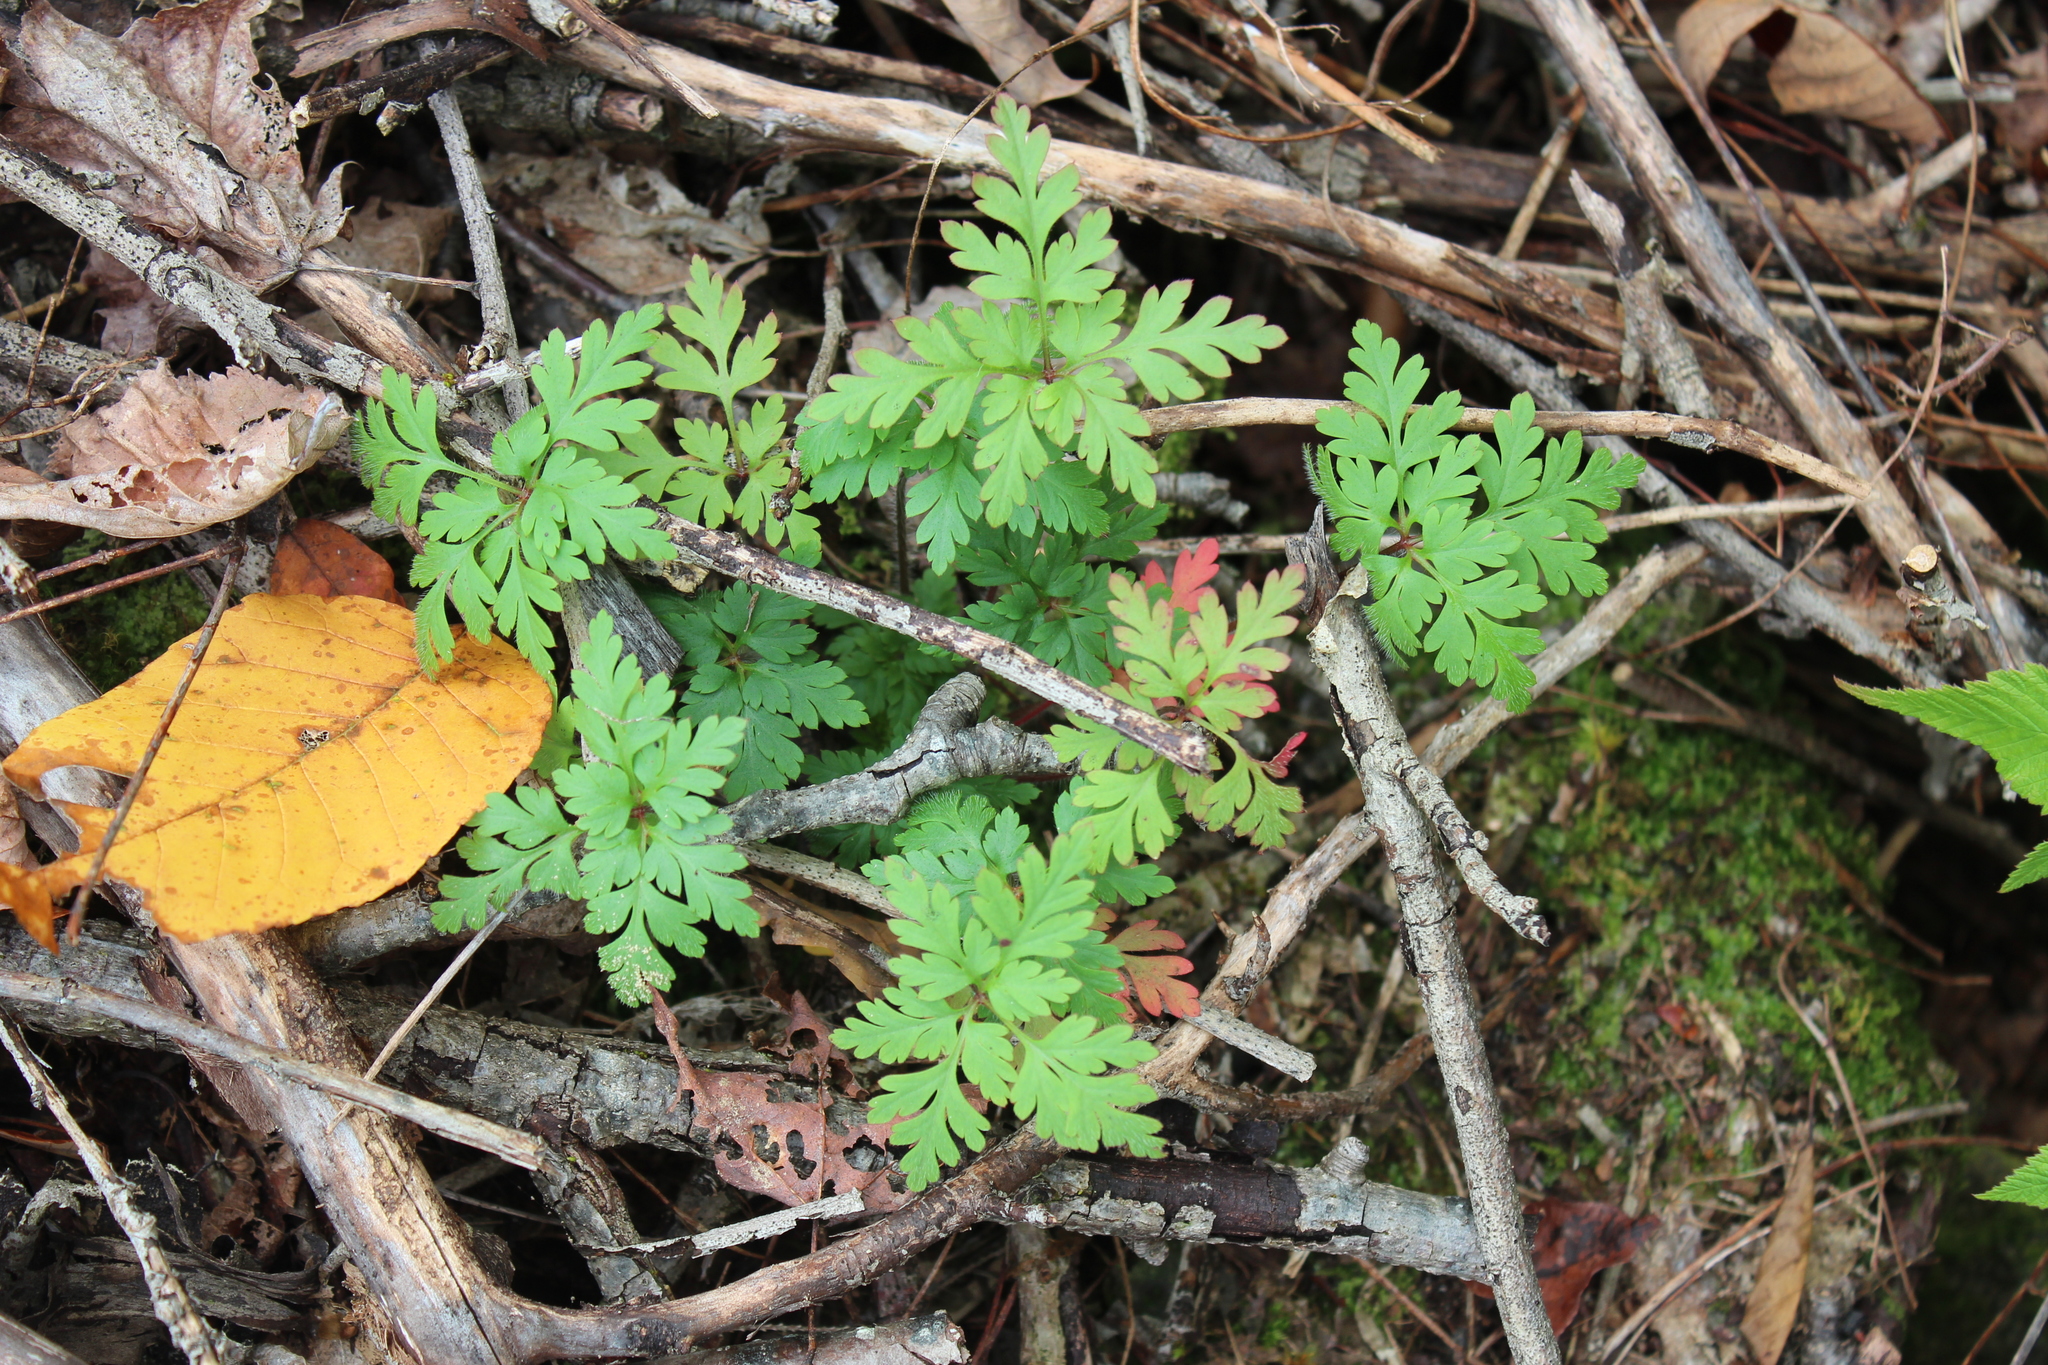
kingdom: Plantae
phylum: Tracheophyta
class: Magnoliopsida
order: Geraniales
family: Geraniaceae
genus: Geranium
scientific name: Geranium robertianum
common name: Herb-robert
